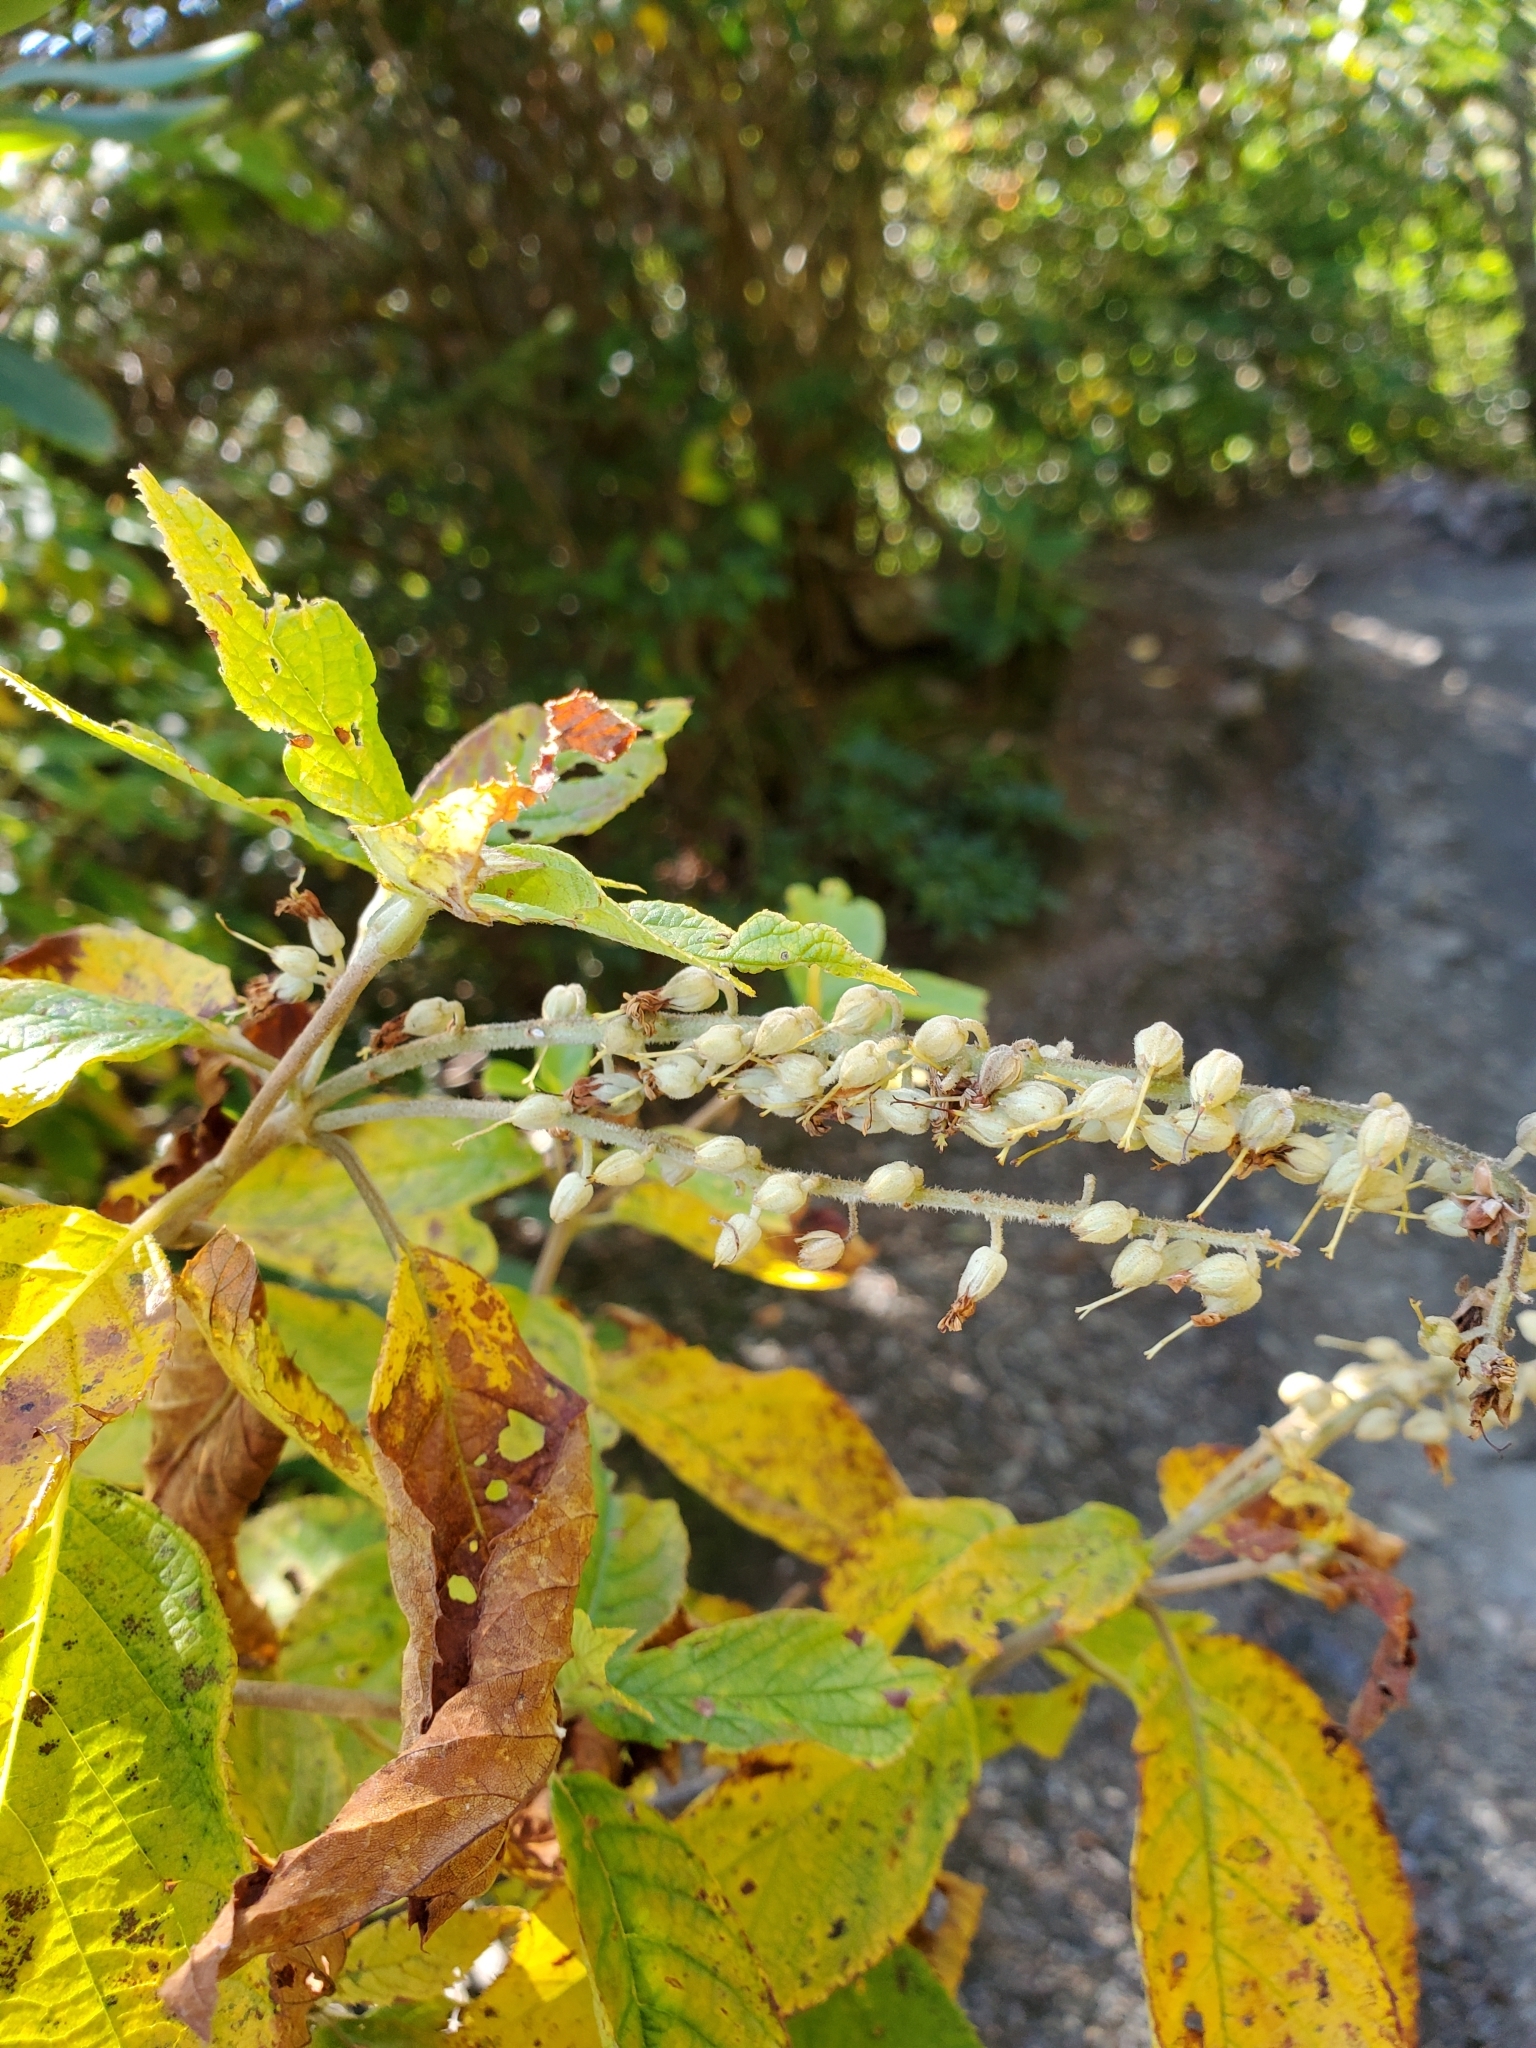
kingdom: Plantae
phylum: Tracheophyta
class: Magnoliopsida
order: Ericales
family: Clethraceae
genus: Clethra
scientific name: Clethra acuminata
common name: Mountain sweet pepperbush
